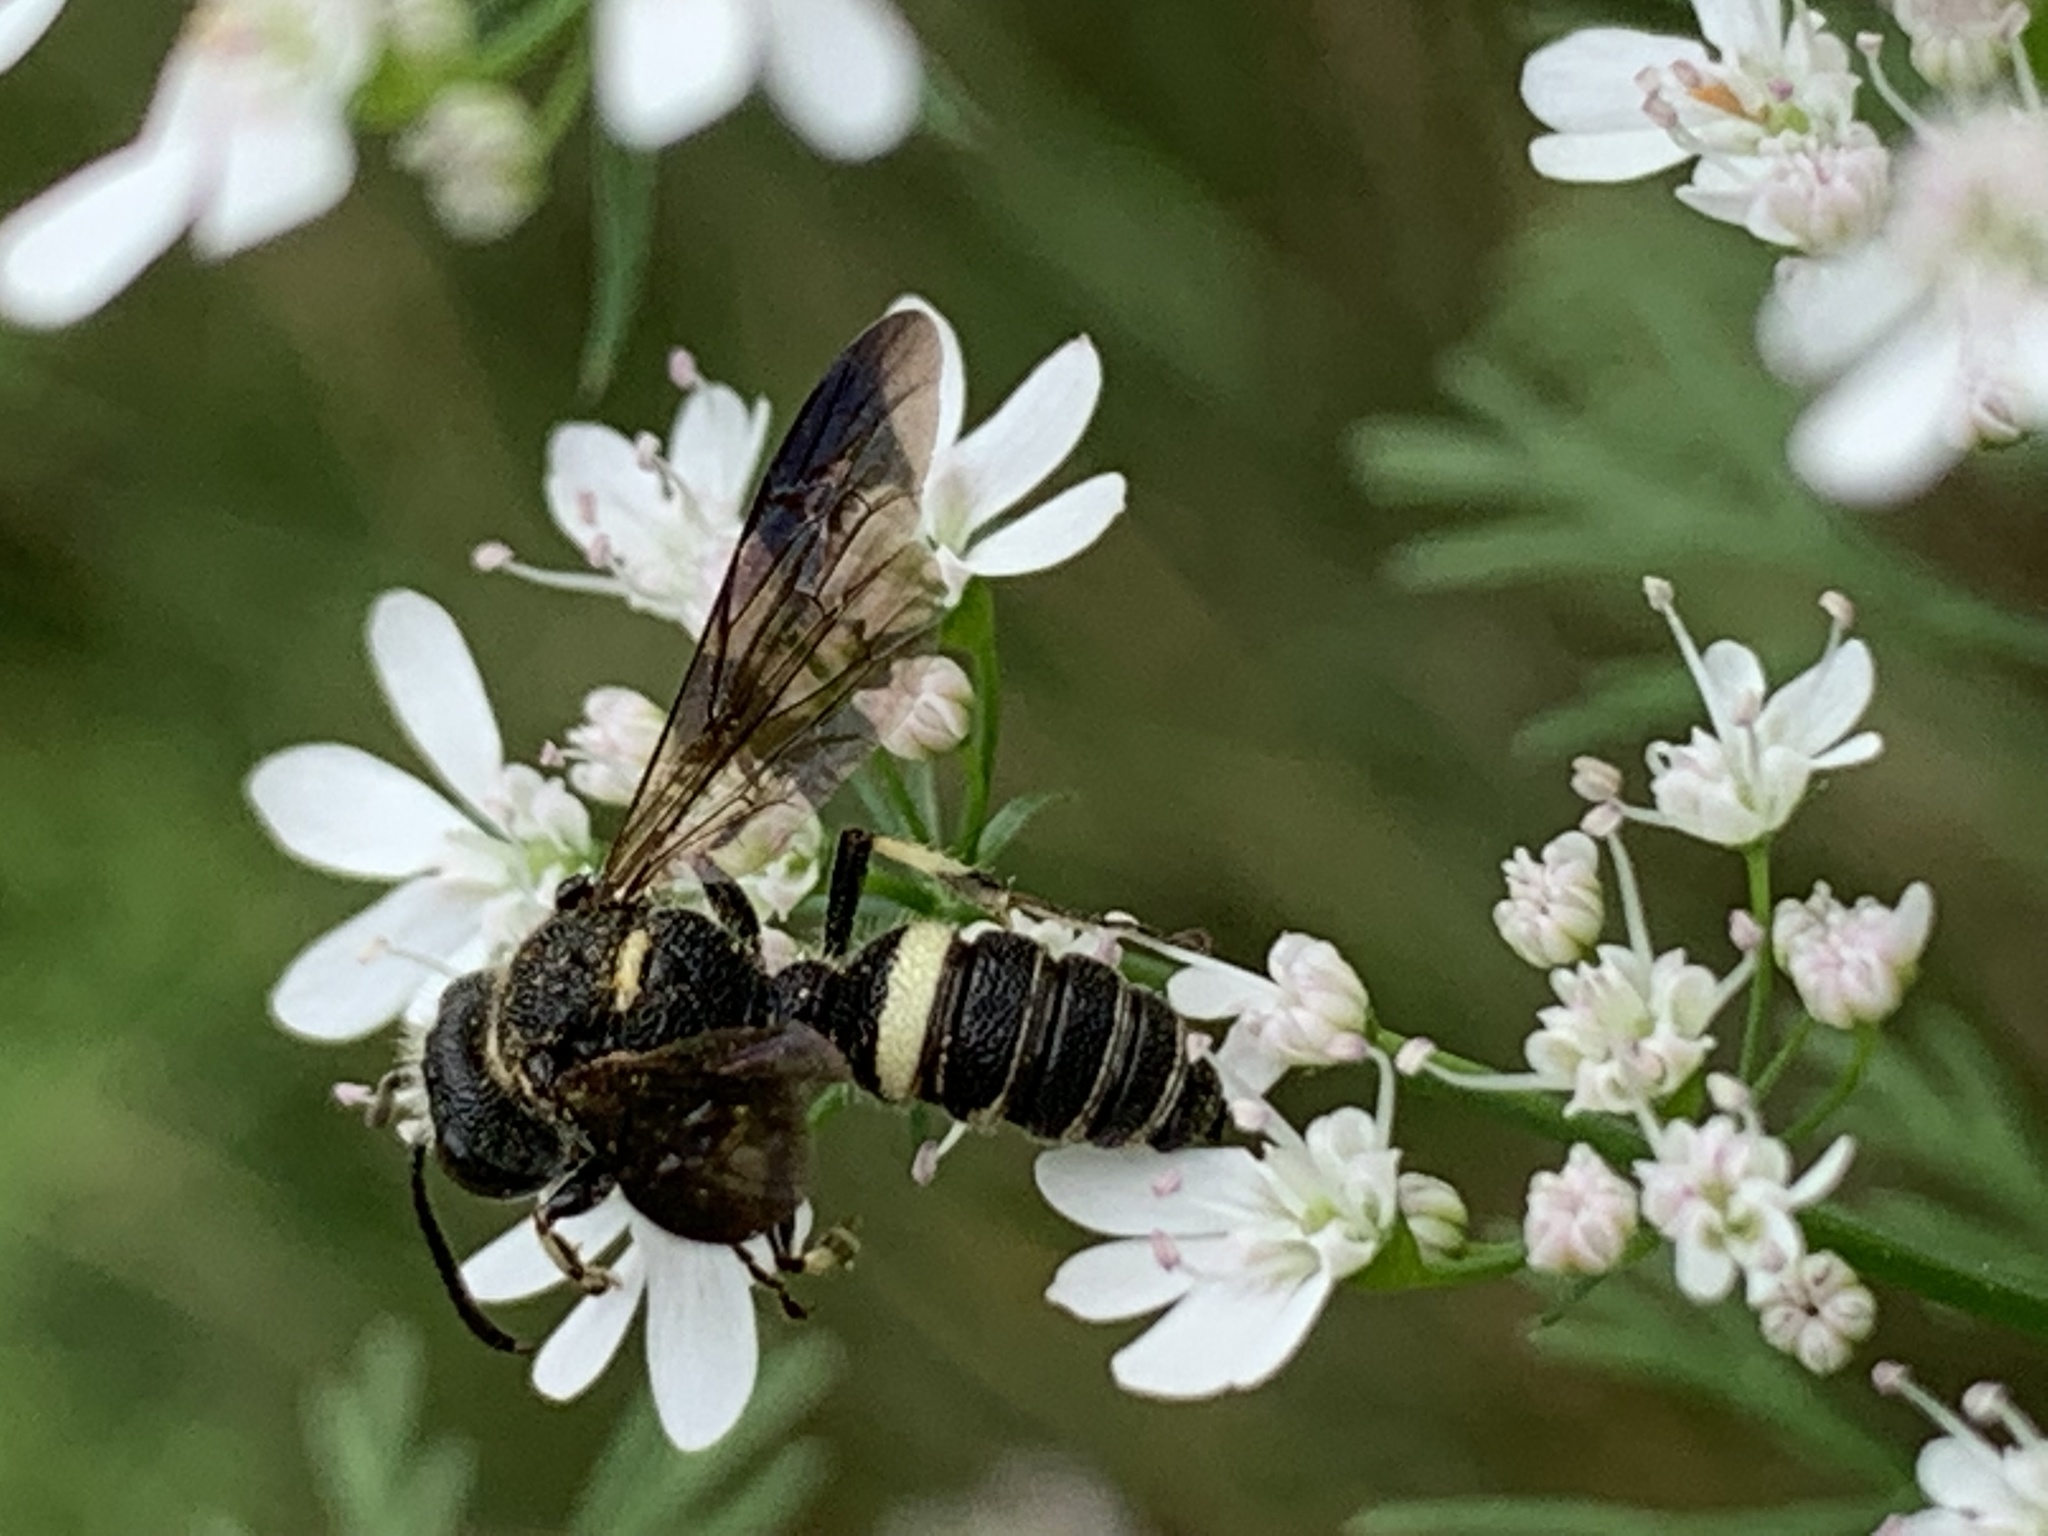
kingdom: Animalia
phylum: Arthropoda
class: Insecta
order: Hymenoptera
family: Crabronidae
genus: Cerceris
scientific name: Cerceris fumipennis
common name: Smokey-winged beetle bandit wasp
